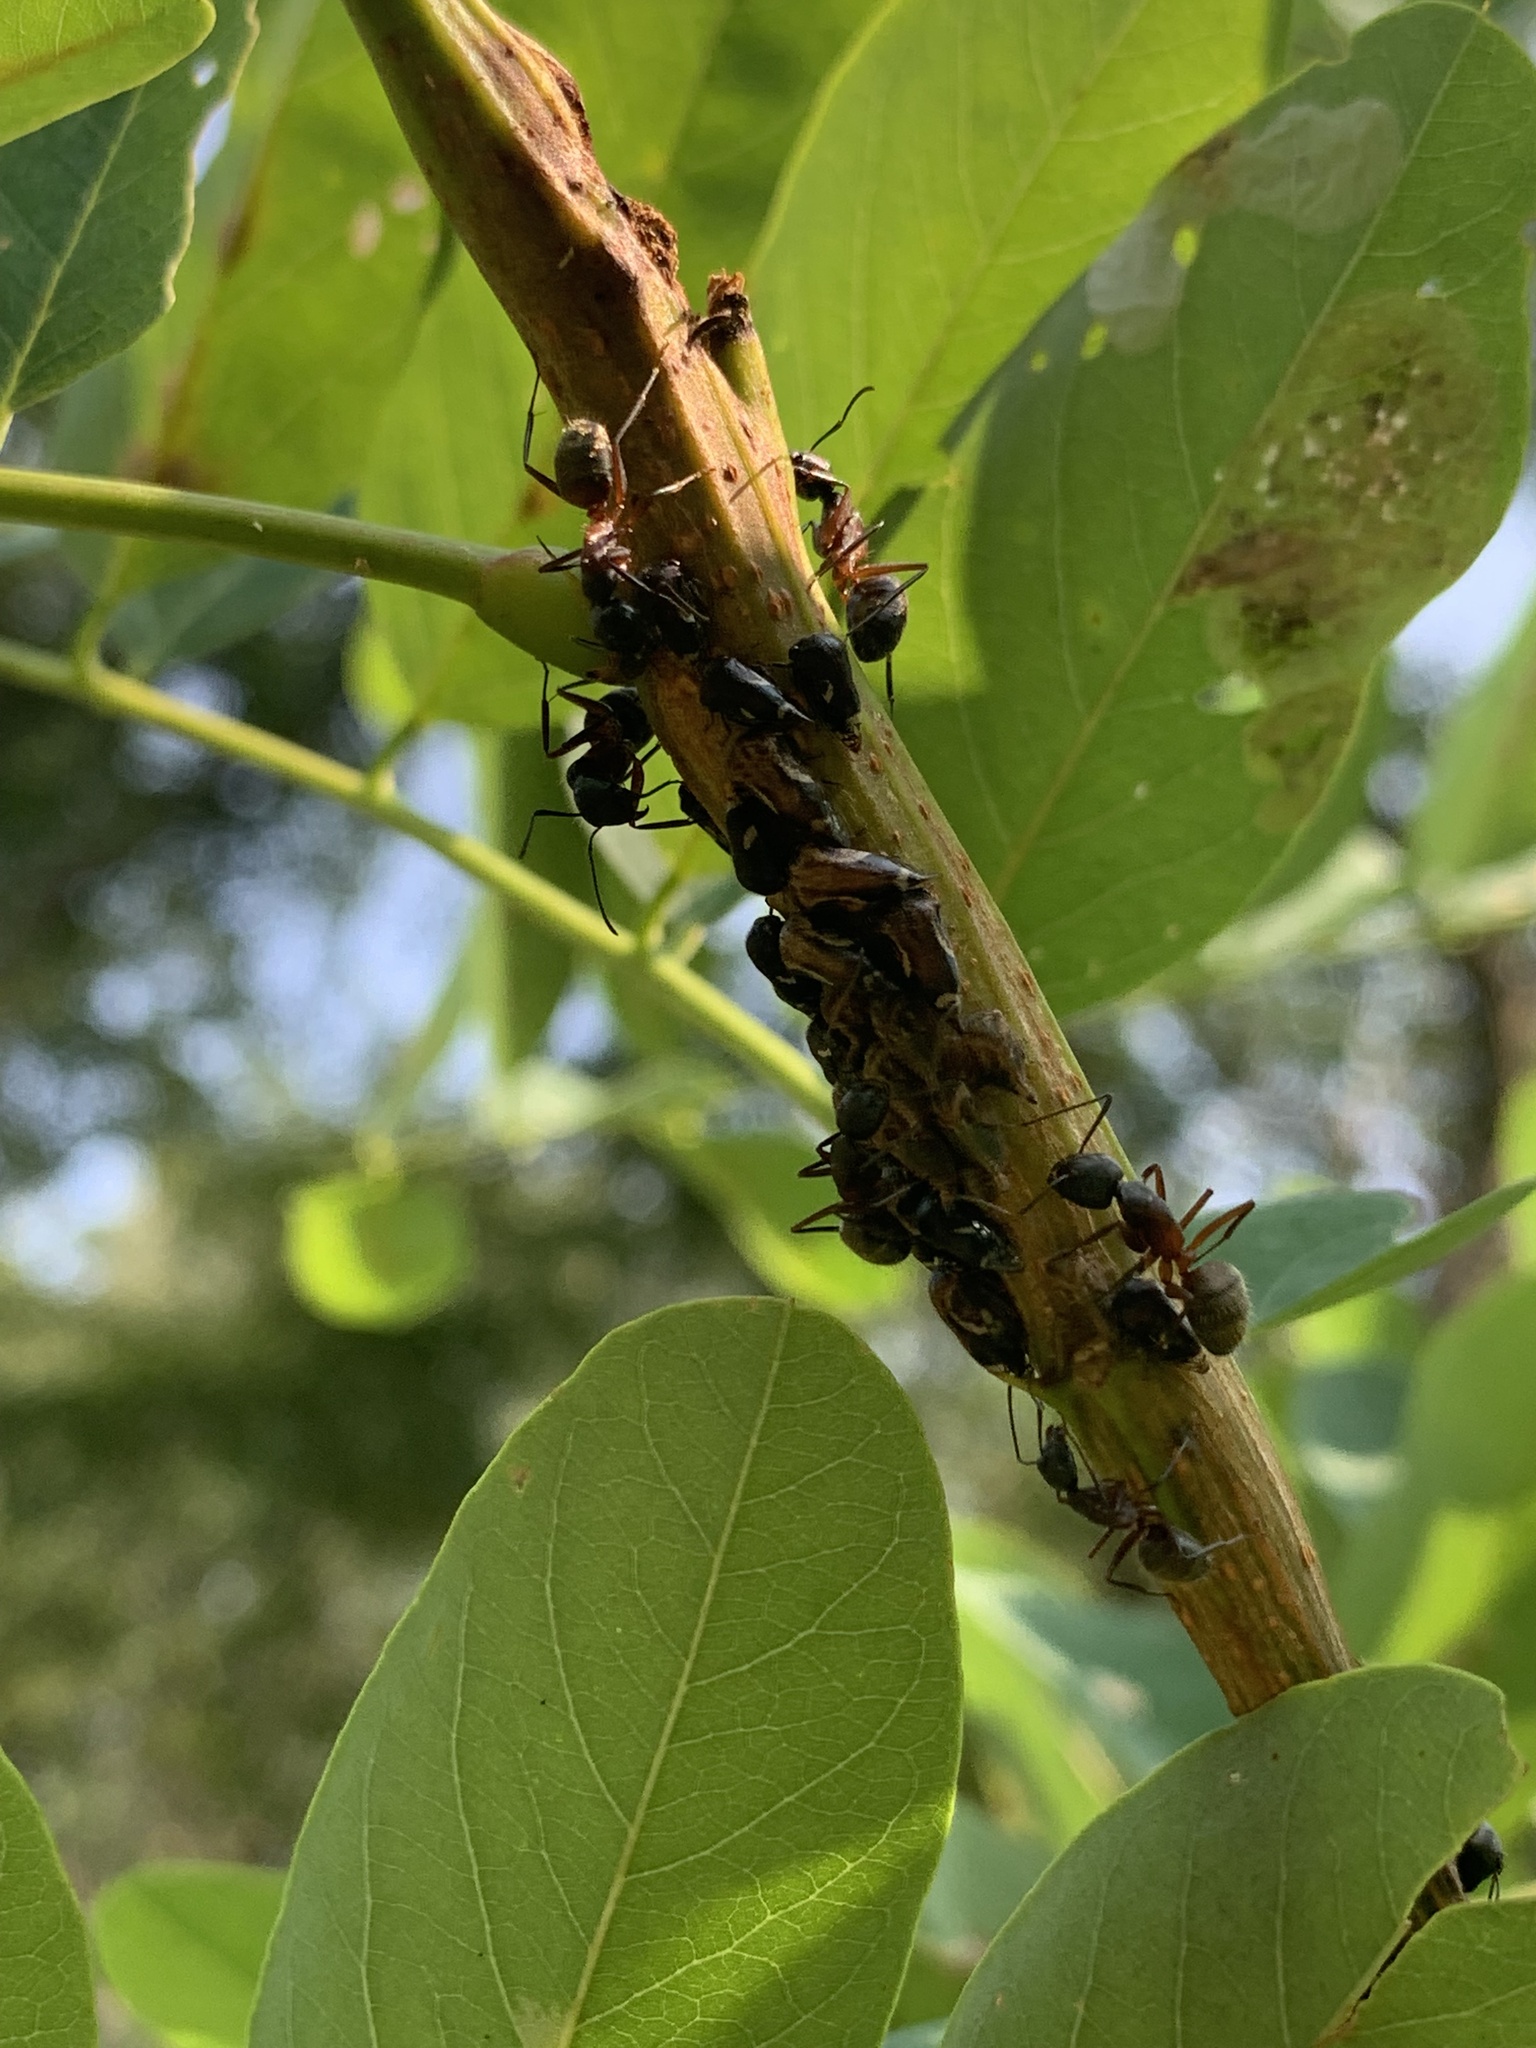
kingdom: Animalia
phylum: Arthropoda
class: Insecta
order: Hemiptera
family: Membracidae
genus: Vanduzea
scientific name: Vanduzea arquata
